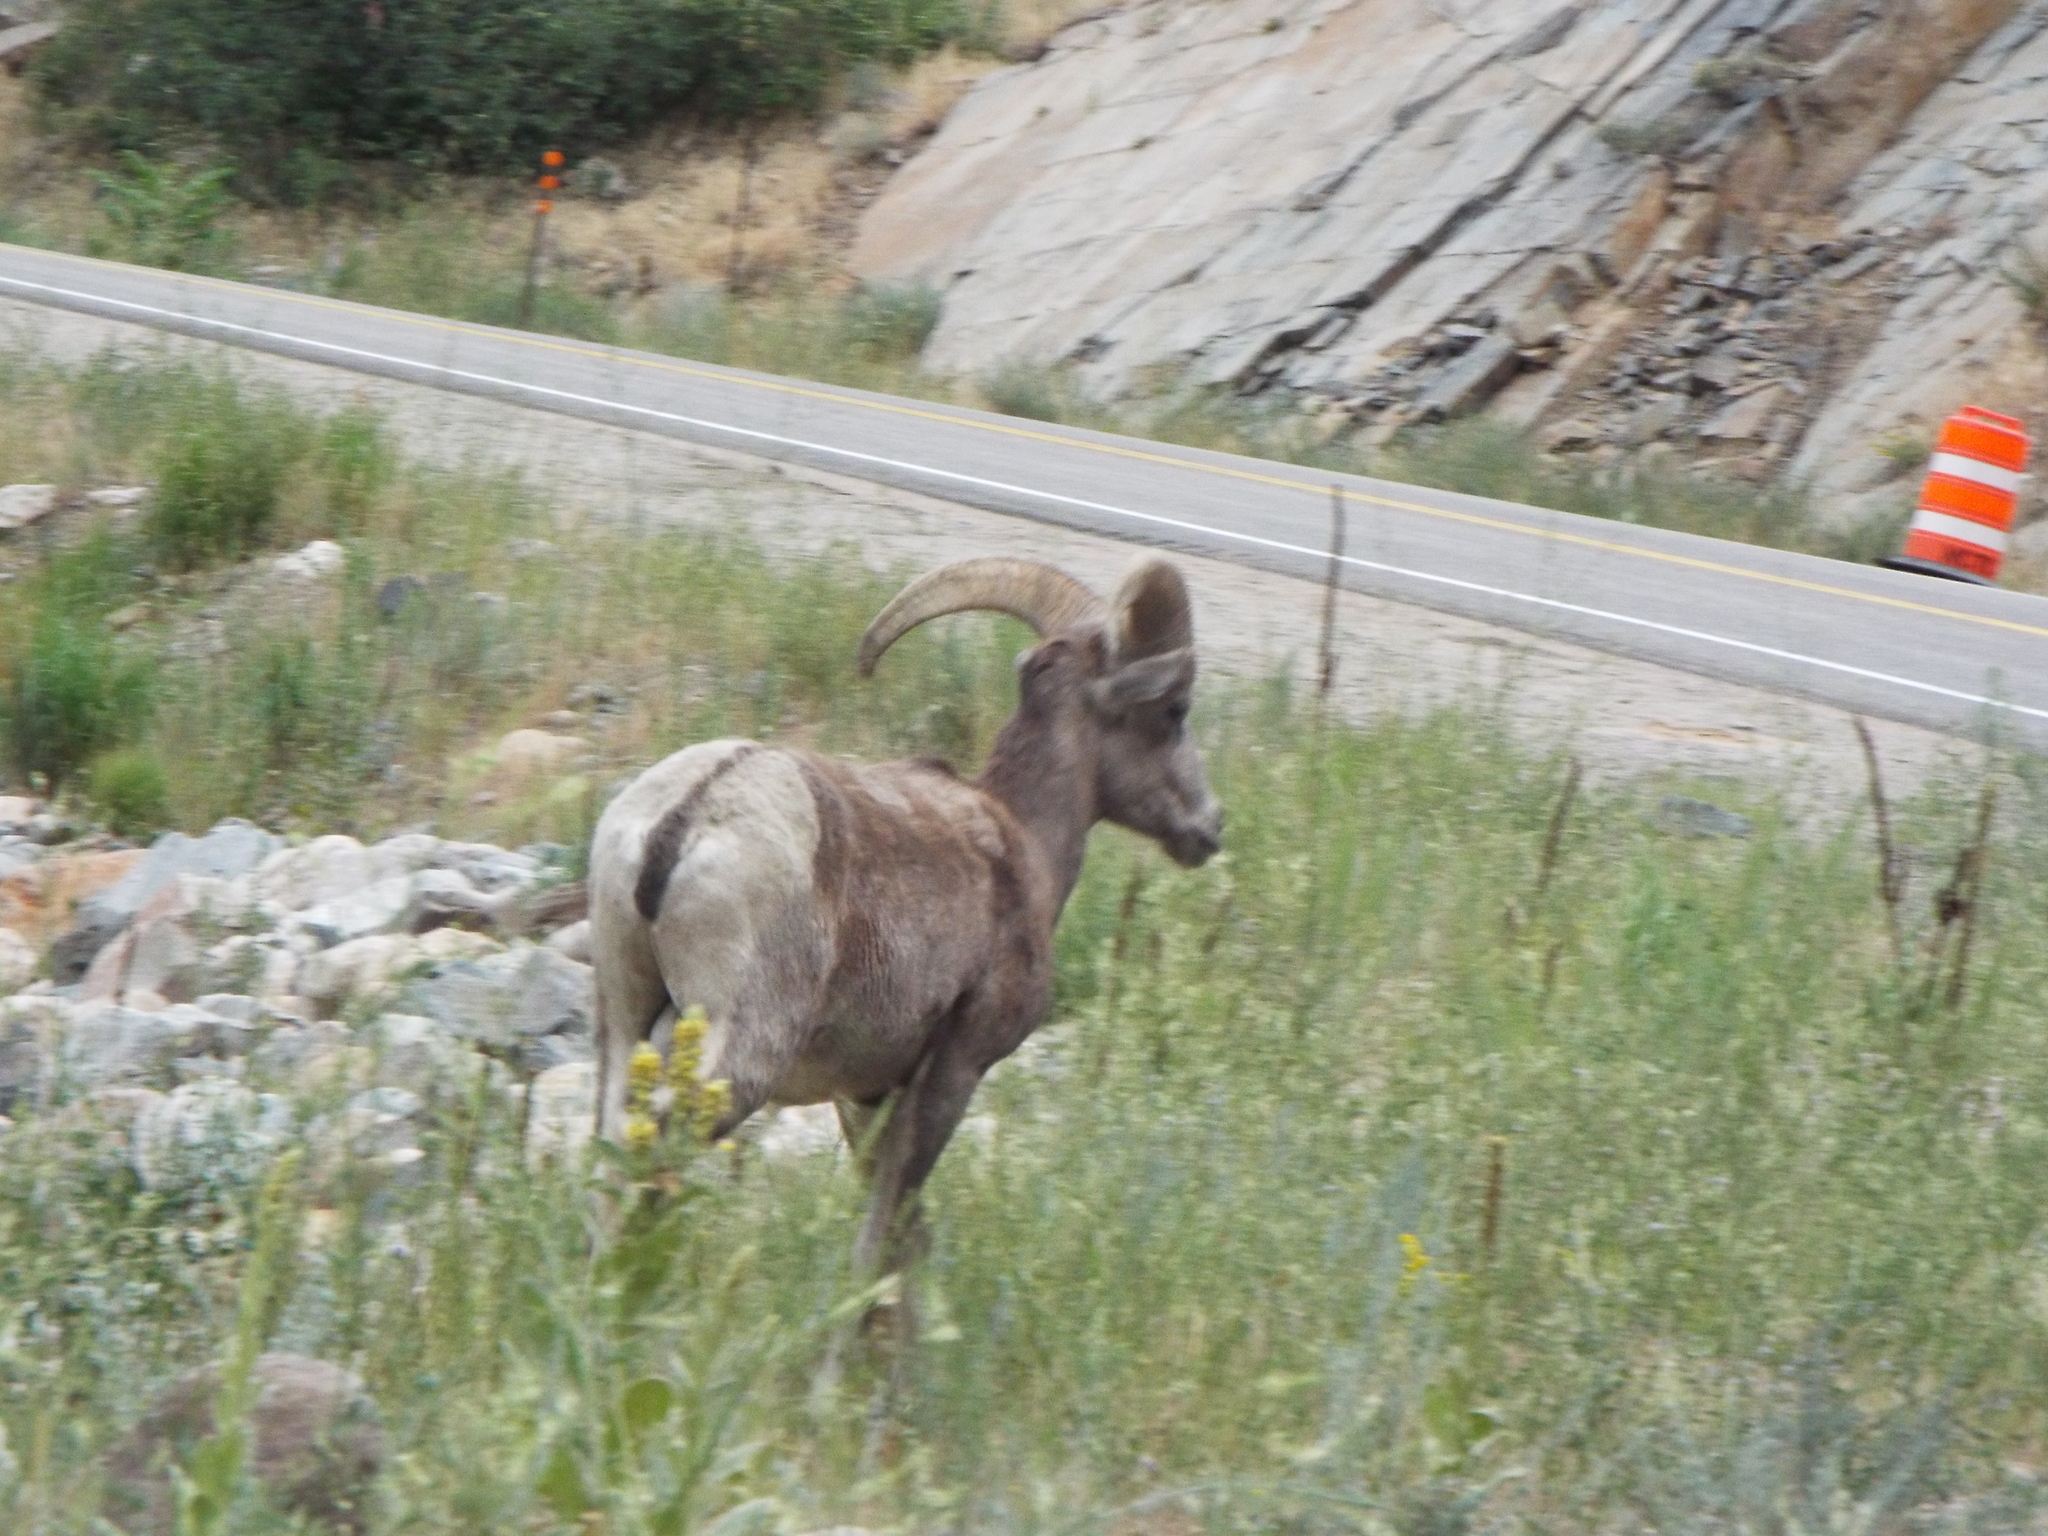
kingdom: Animalia
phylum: Chordata
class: Mammalia
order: Artiodactyla
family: Bovidae
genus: Ovis
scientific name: Ovis canadensis
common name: Bighorn sheep
